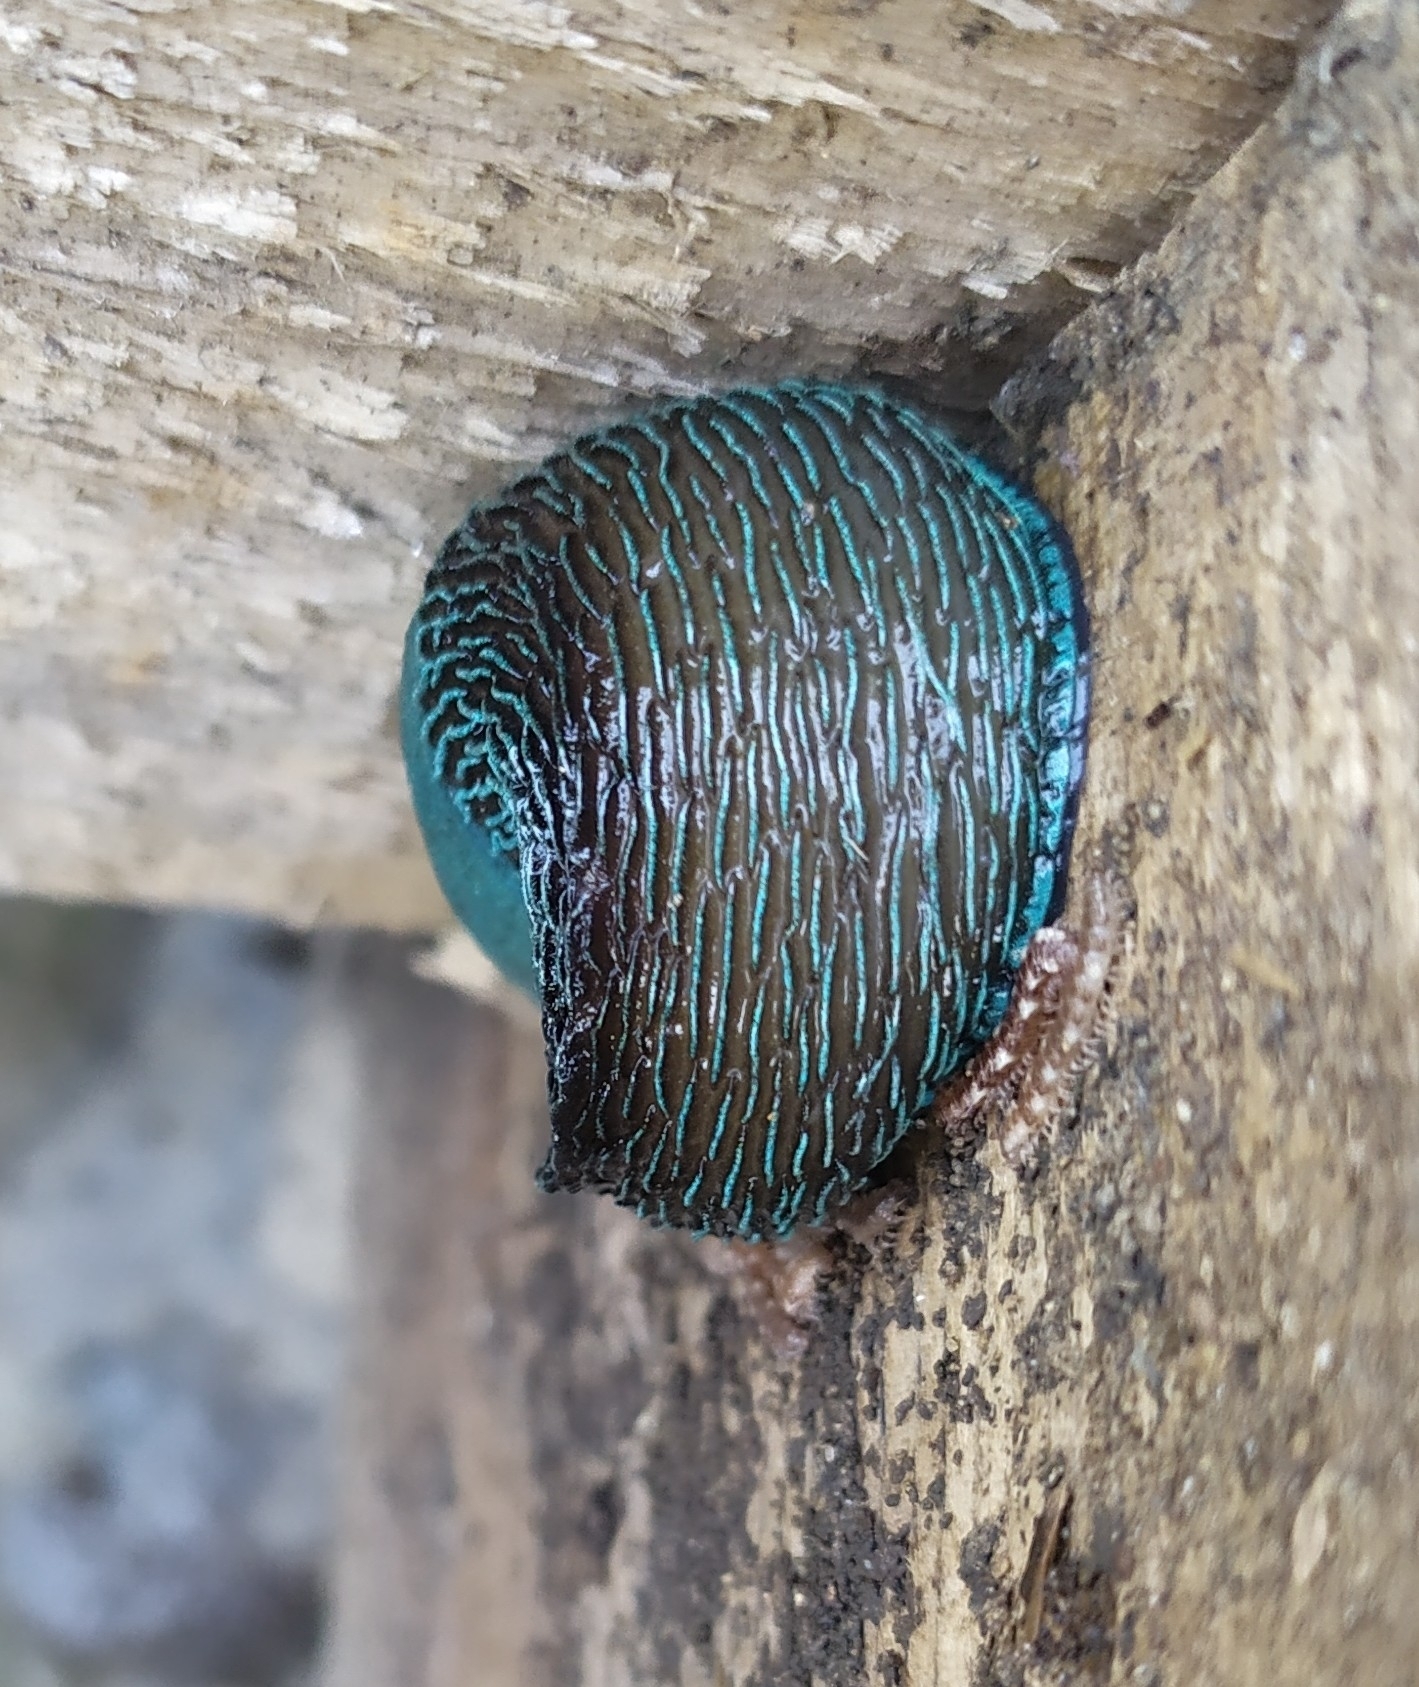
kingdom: Animalia
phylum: Mollusca
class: Gastropoda
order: Stylommatophora
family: Limacidae
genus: Bielzia
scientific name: Bielzia coerulans
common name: Carpathian blue slug
